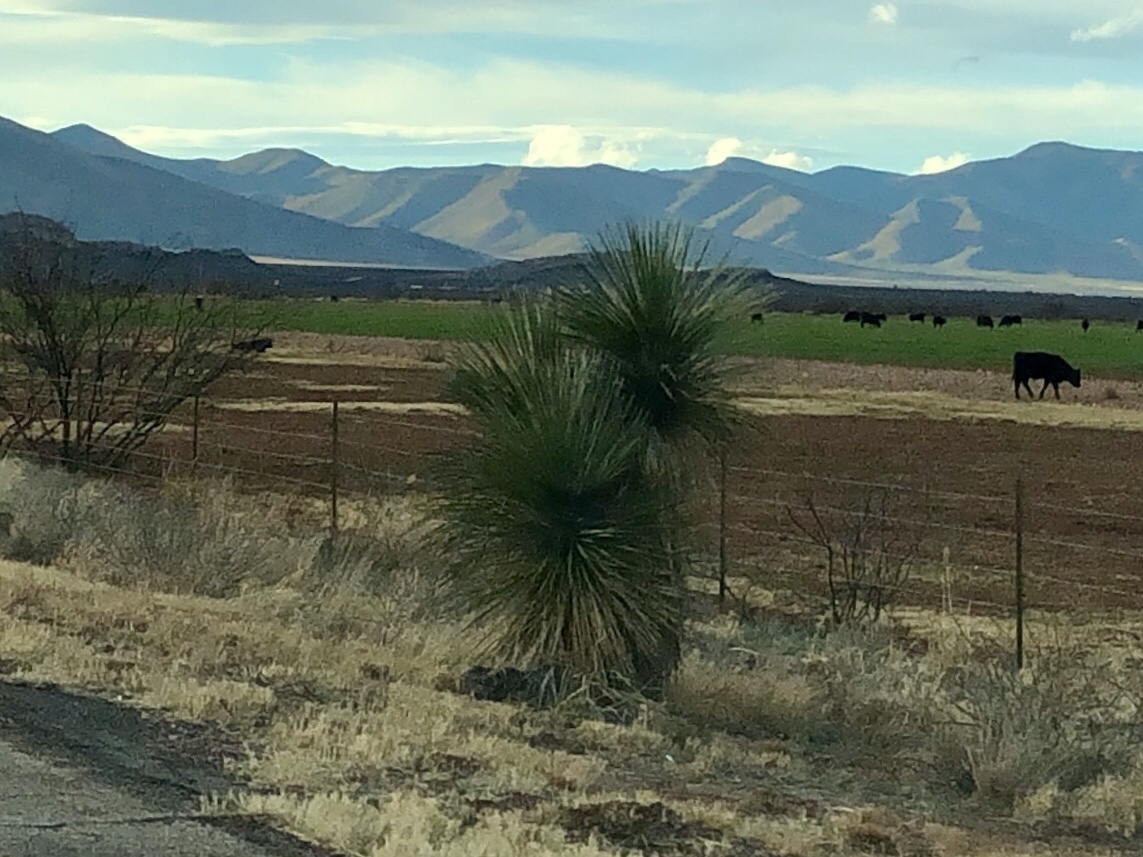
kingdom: Plantae
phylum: Tracheophyta
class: Liliopsida
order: Asparagales
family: Asparagaceae
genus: Yucca
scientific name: Yucca elata
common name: Palmella
